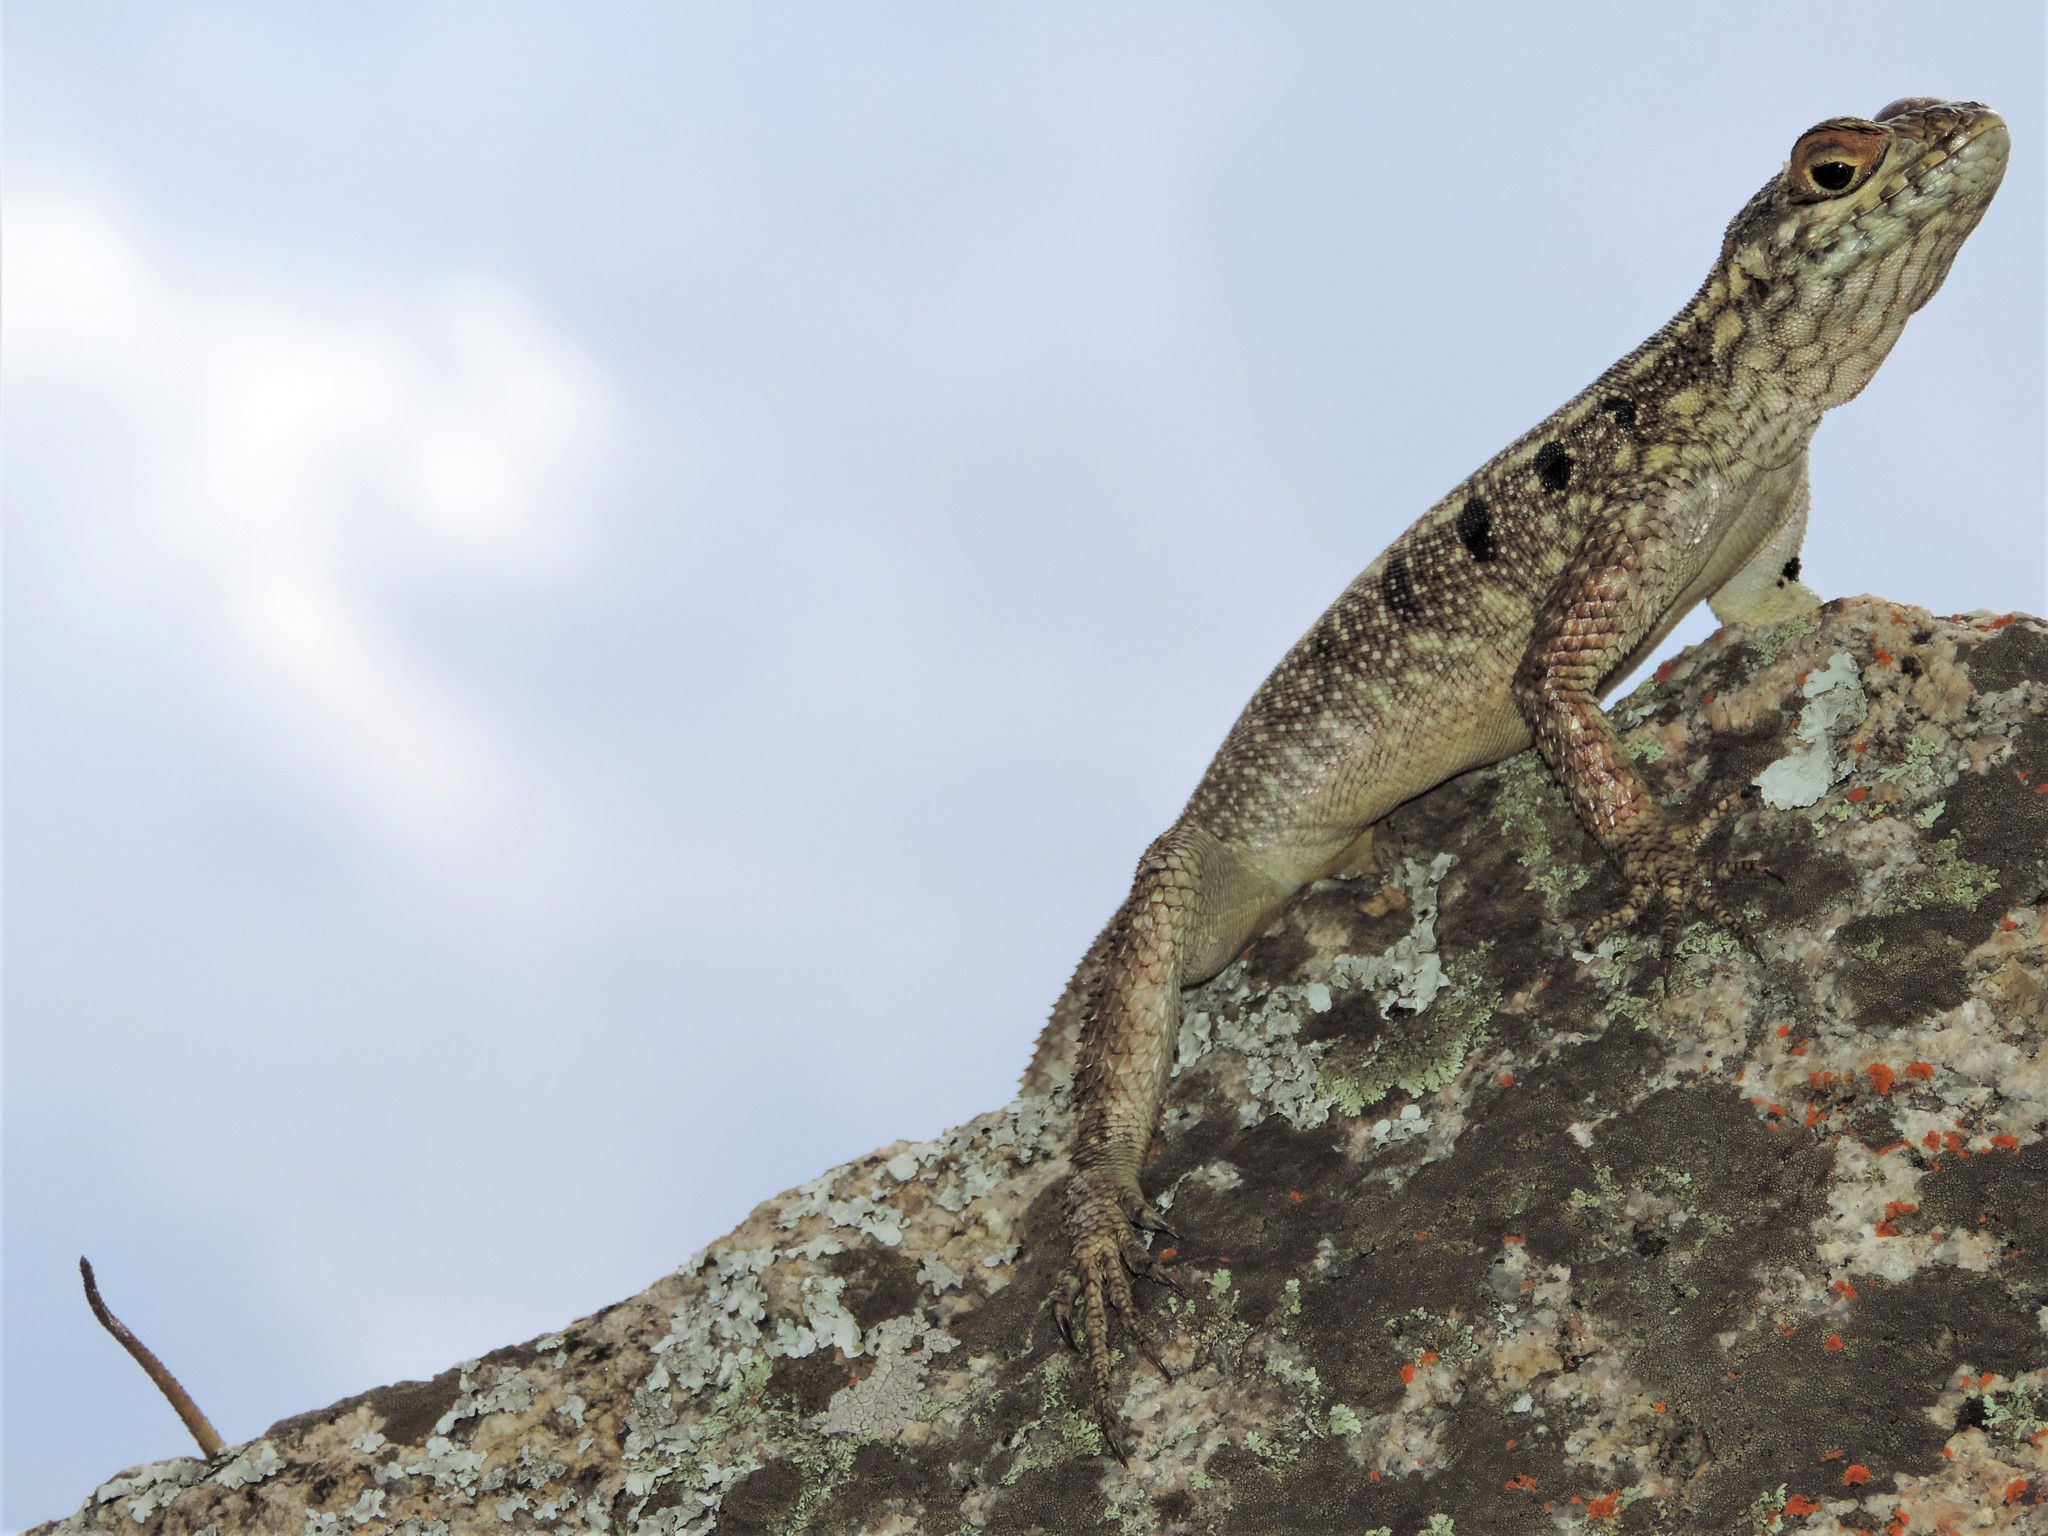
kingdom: Animalia
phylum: Chordata
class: Squamata
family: Opluridae
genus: Oplurus
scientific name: Oplurus quadrimaculatus
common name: Duméril's madagascar swift
